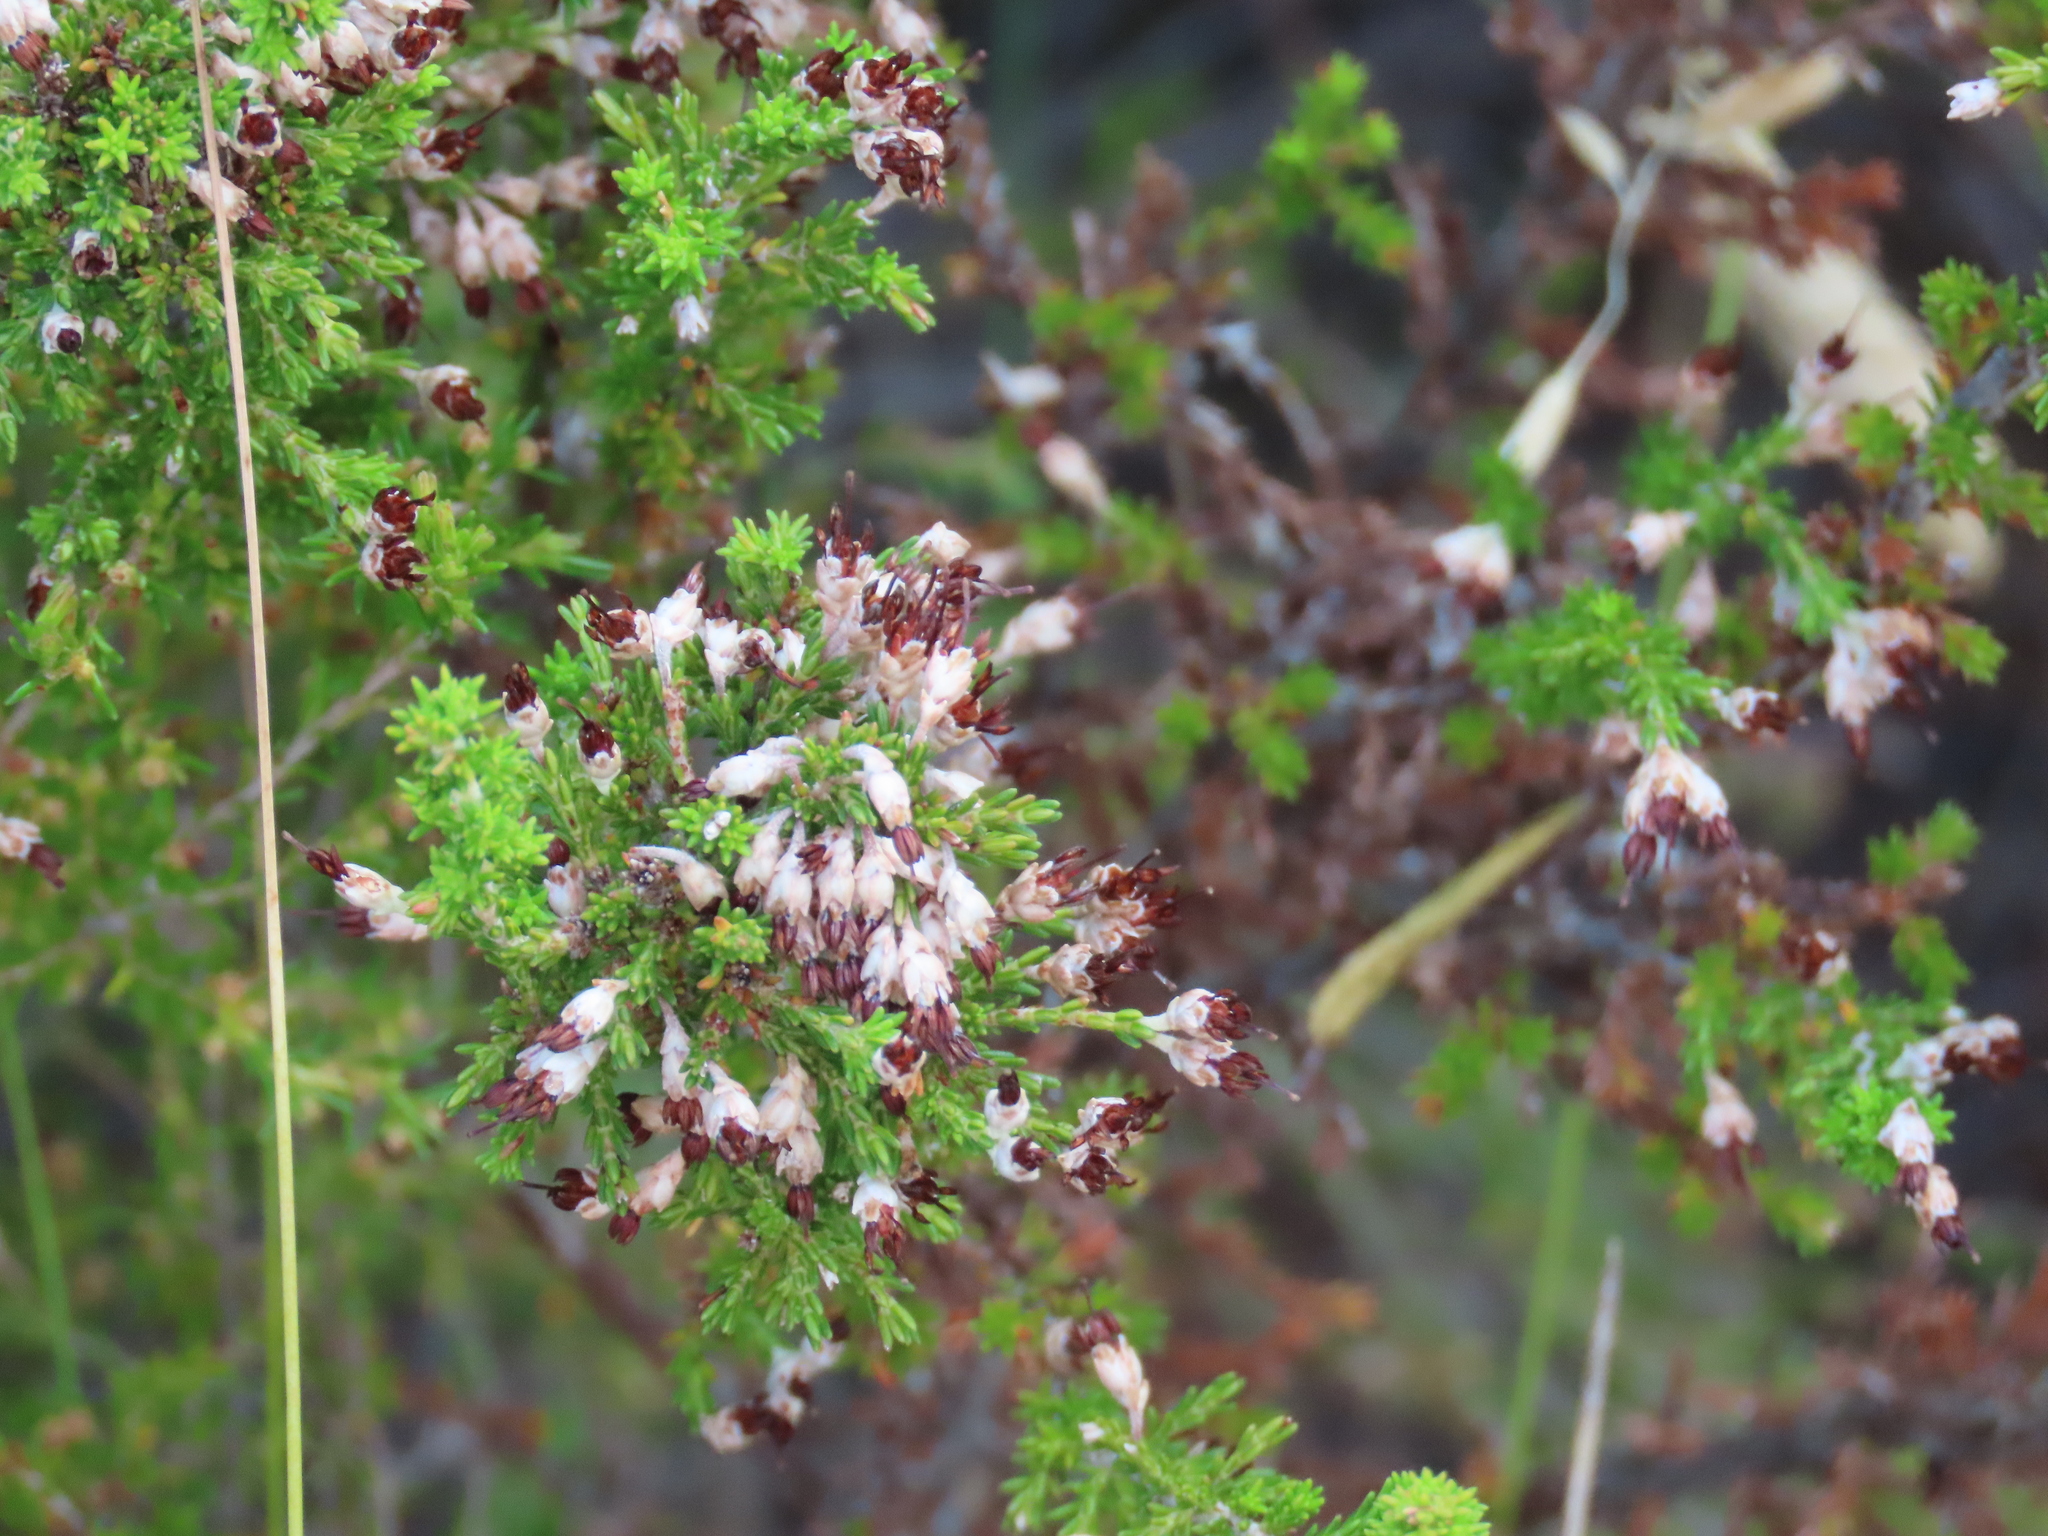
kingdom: Plantae
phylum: Tracheophyta
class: Magnoliopsida
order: Ericales
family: Ericaceae
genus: Erica
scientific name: Erica imbricata
